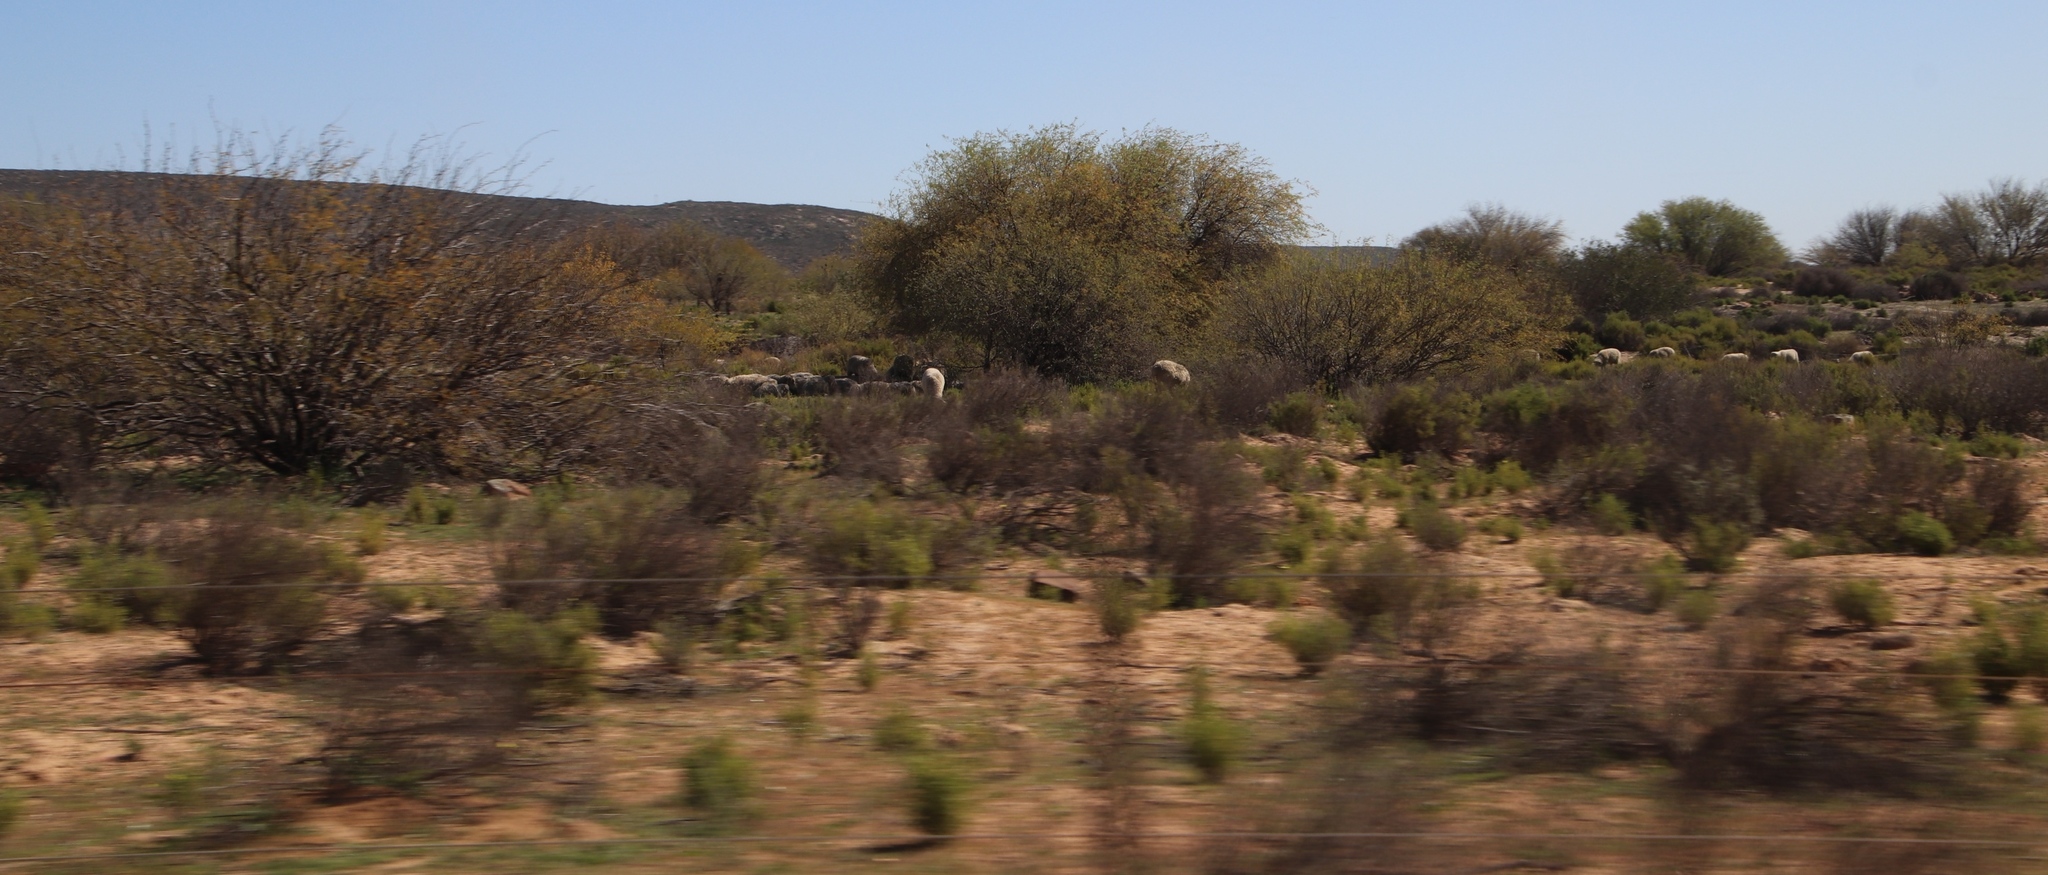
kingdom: Plantae
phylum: Tracheophyta
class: Magnoliopsida
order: Fabales
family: Fabaceae
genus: Prosopis
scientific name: Prosopis pubescens
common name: Screw-bean
